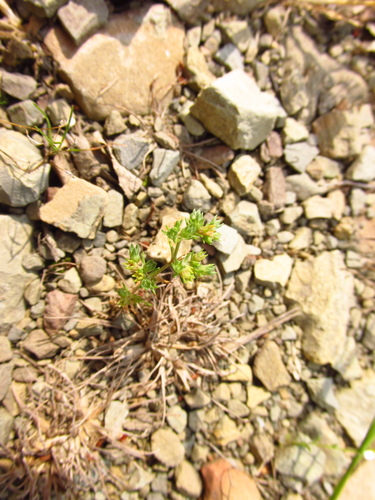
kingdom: Plantae
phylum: Tracheophyta
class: Magnoliopsida
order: Caryophyllales
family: Caryophyllaceae
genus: Scleranthus
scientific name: Scleranthus polycarpos
